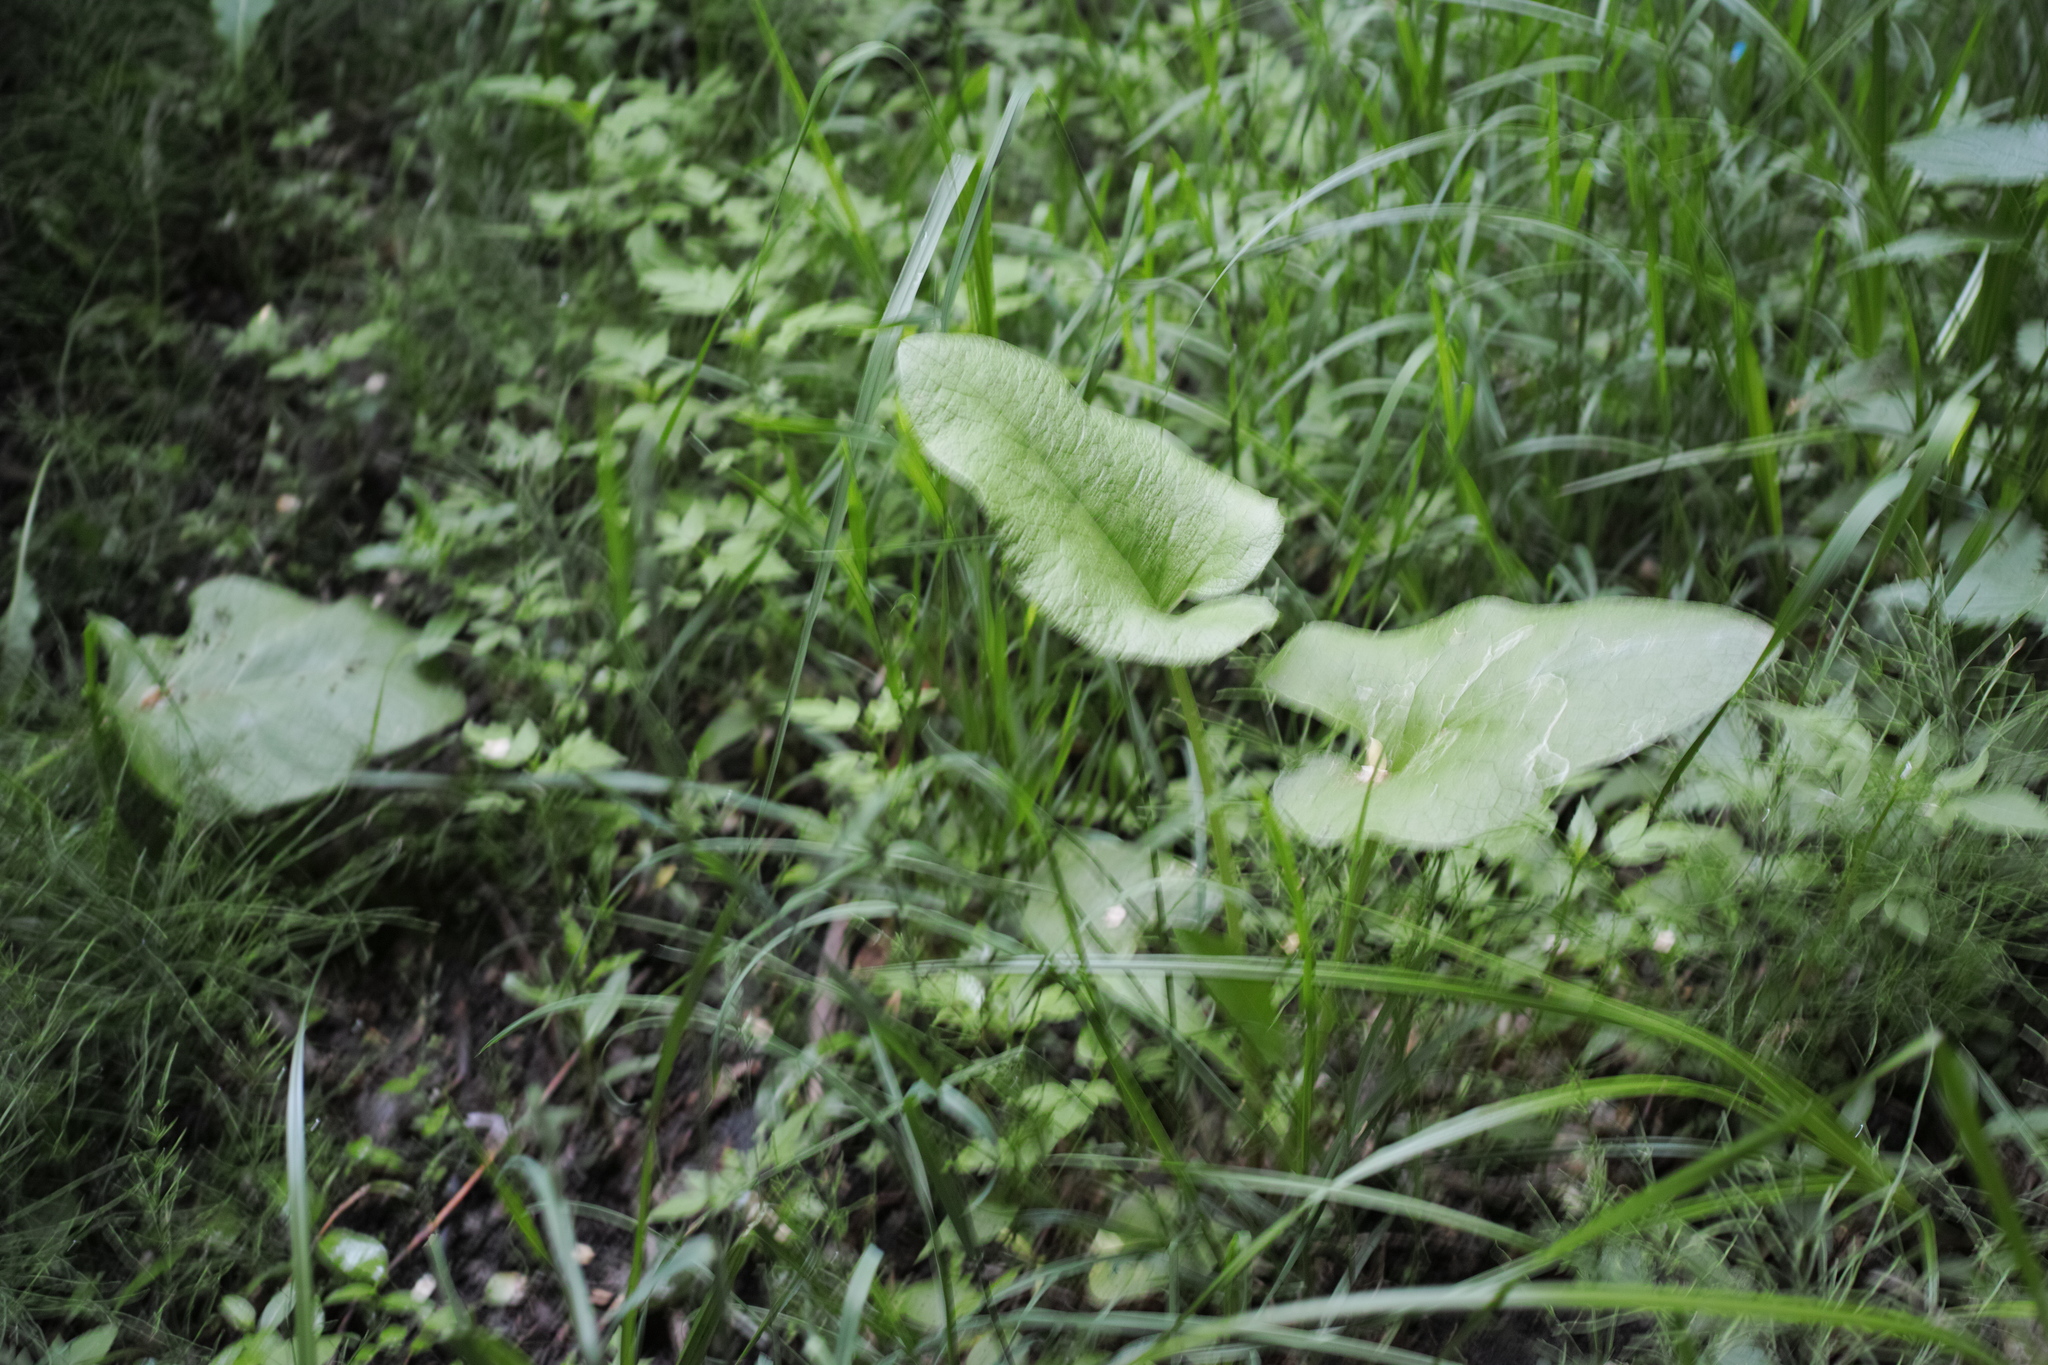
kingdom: Plantae
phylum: Tracheophyta
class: Magnoliopsida
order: Asterales
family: Asteraceae
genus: Arctium
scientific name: Arctium
